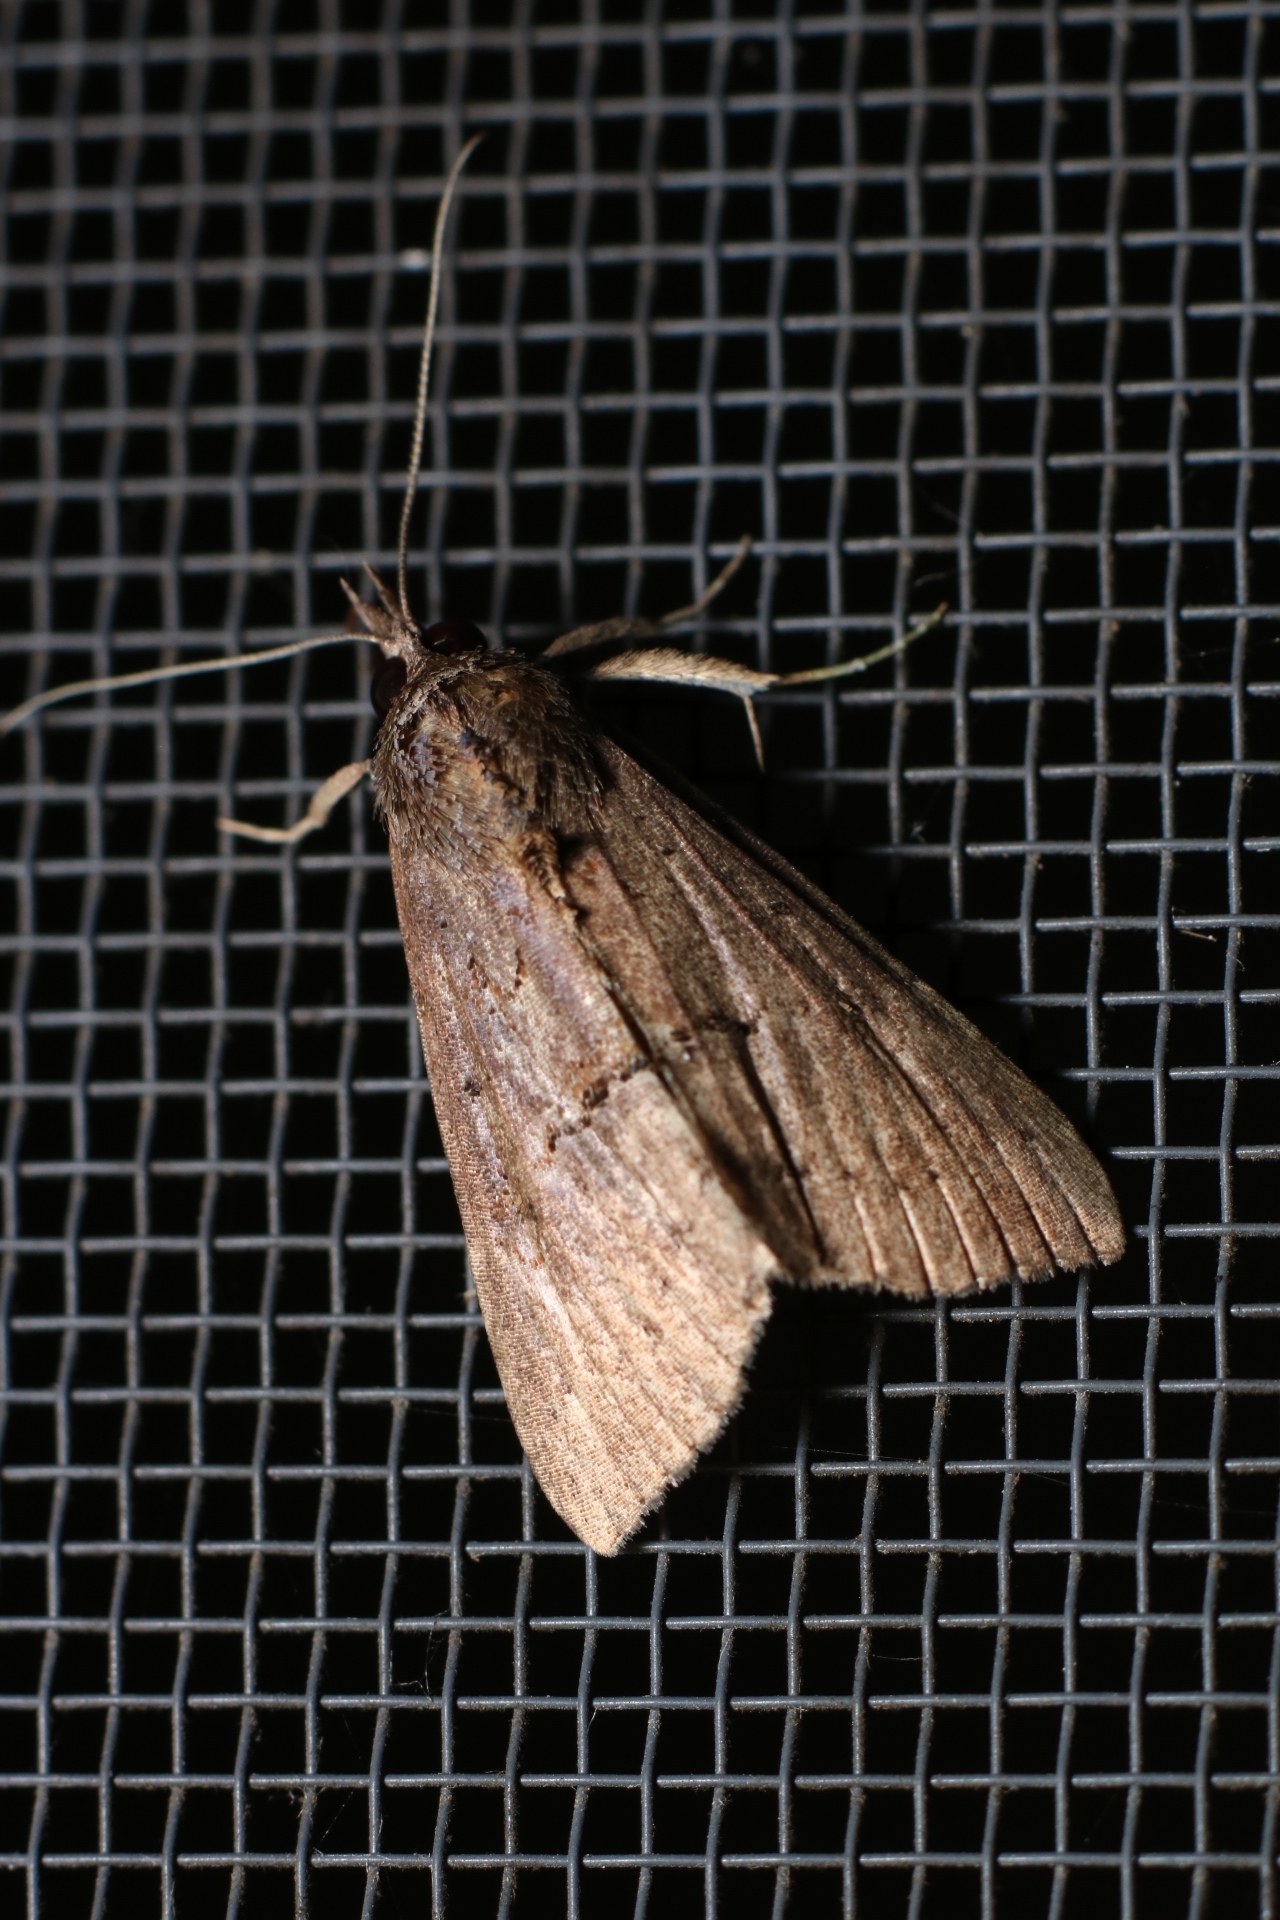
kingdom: Animalia
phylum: Arthropoda
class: Insecta
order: Lepidoptera
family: Erebidae
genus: Hypena
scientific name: Hypena scabra
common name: Green cloverworm
